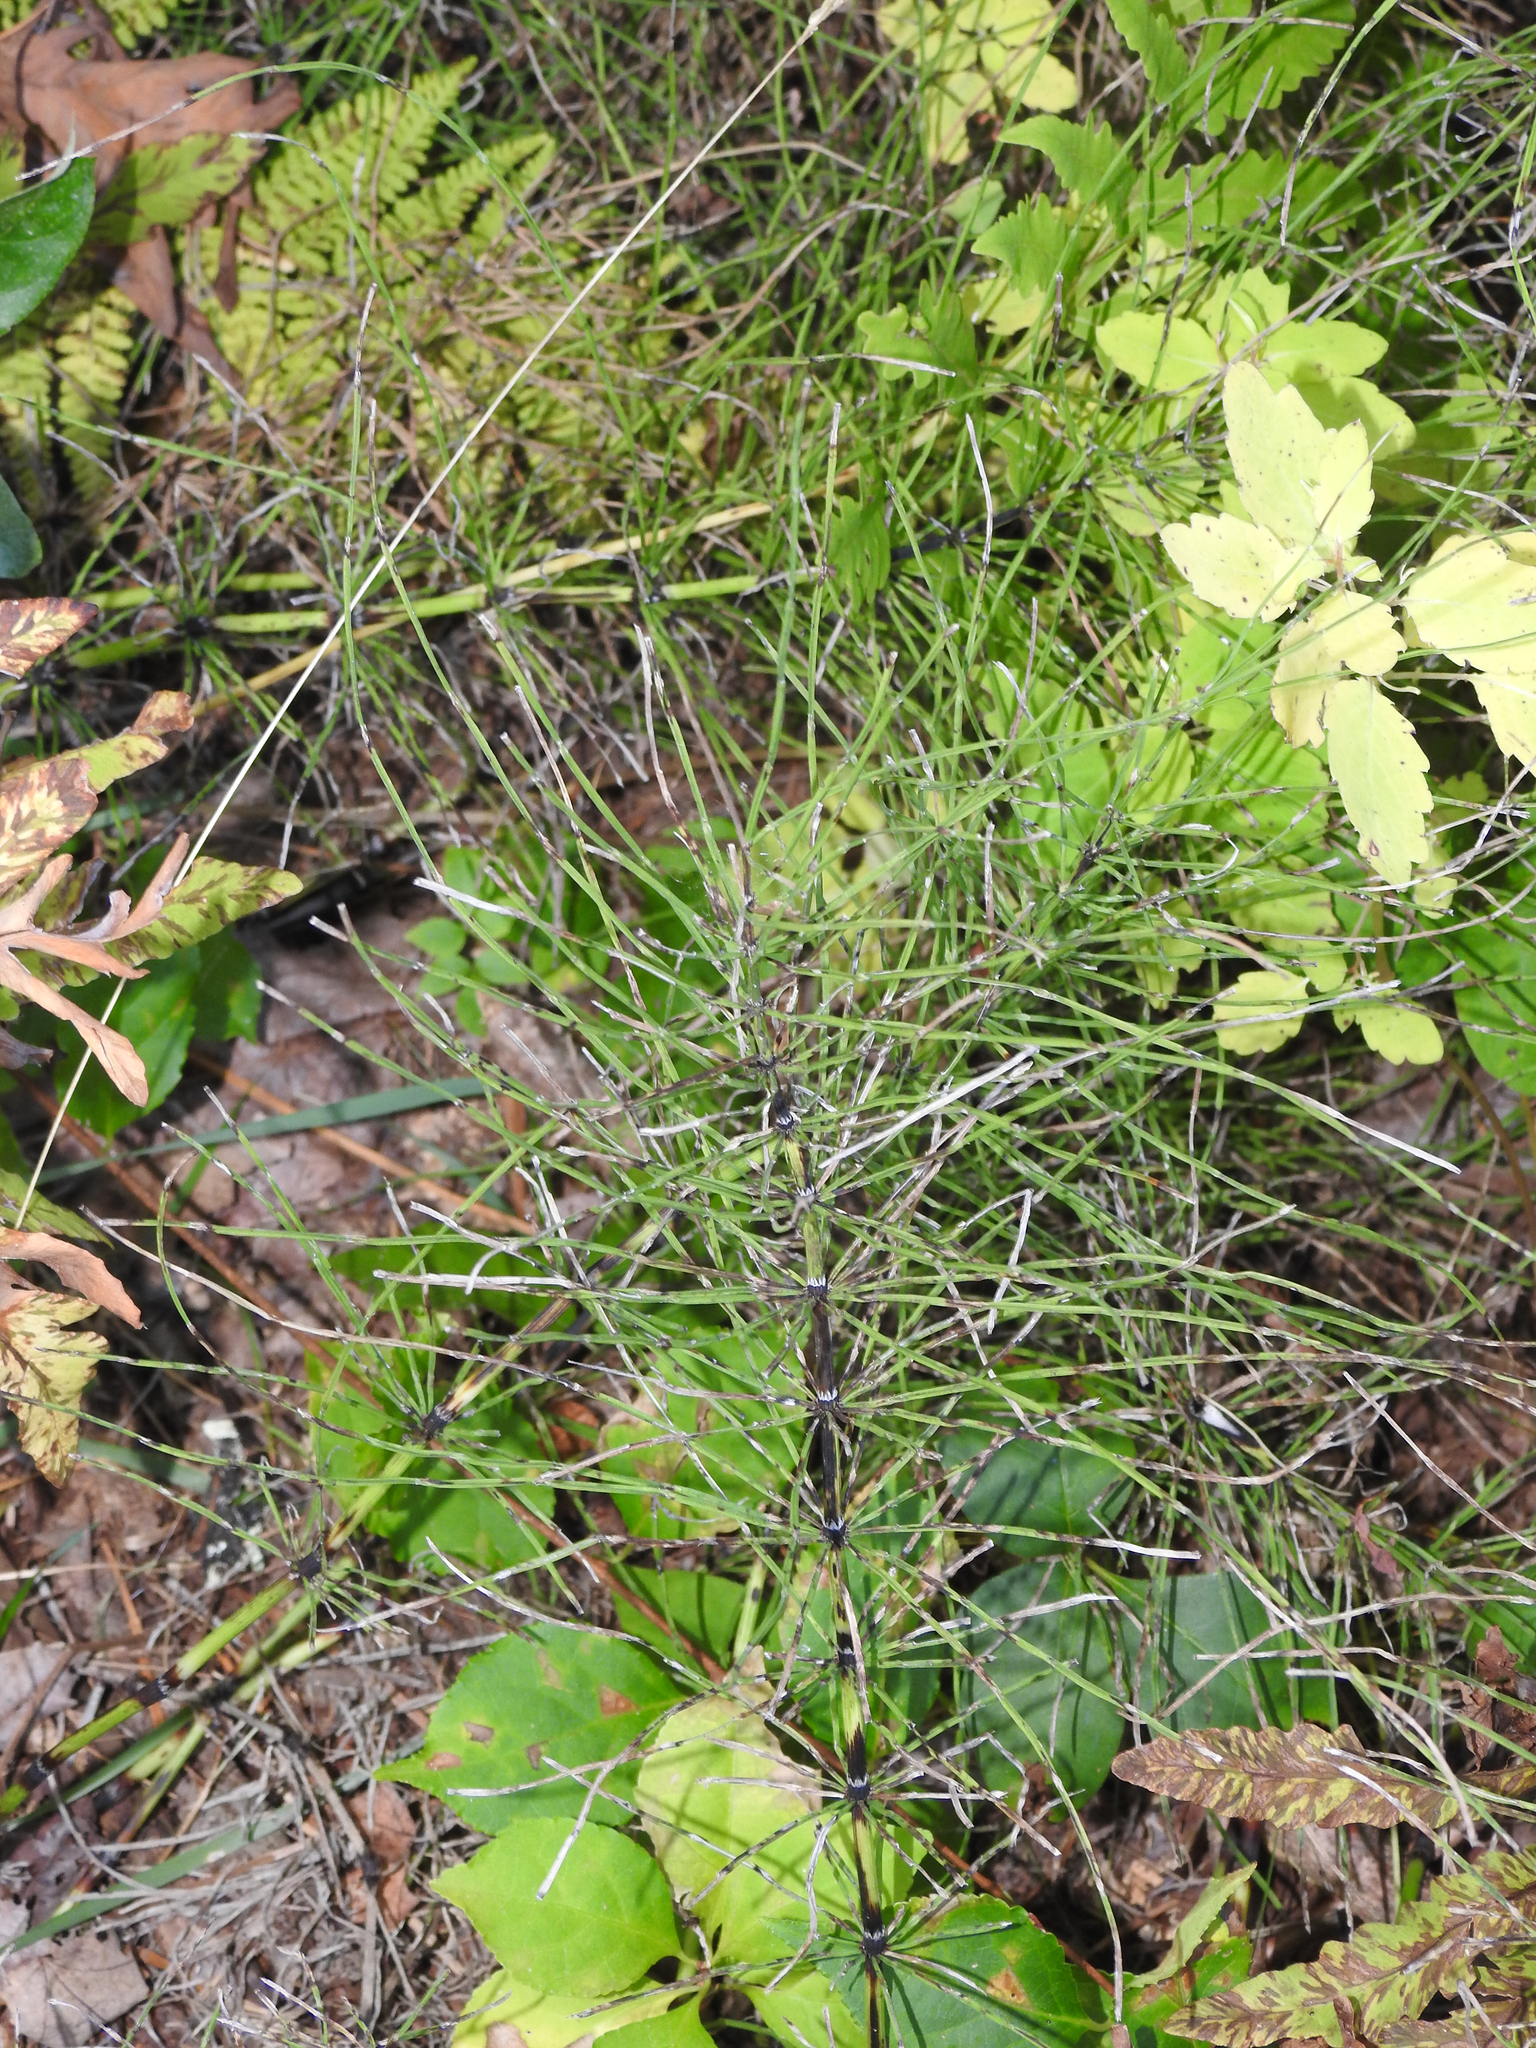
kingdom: Plantae
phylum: Tracheophyta
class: Polypodiopsida
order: Equisetales
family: Equisetaceae
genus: Equisetum
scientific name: Equisetum arvense
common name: Field horsetail
